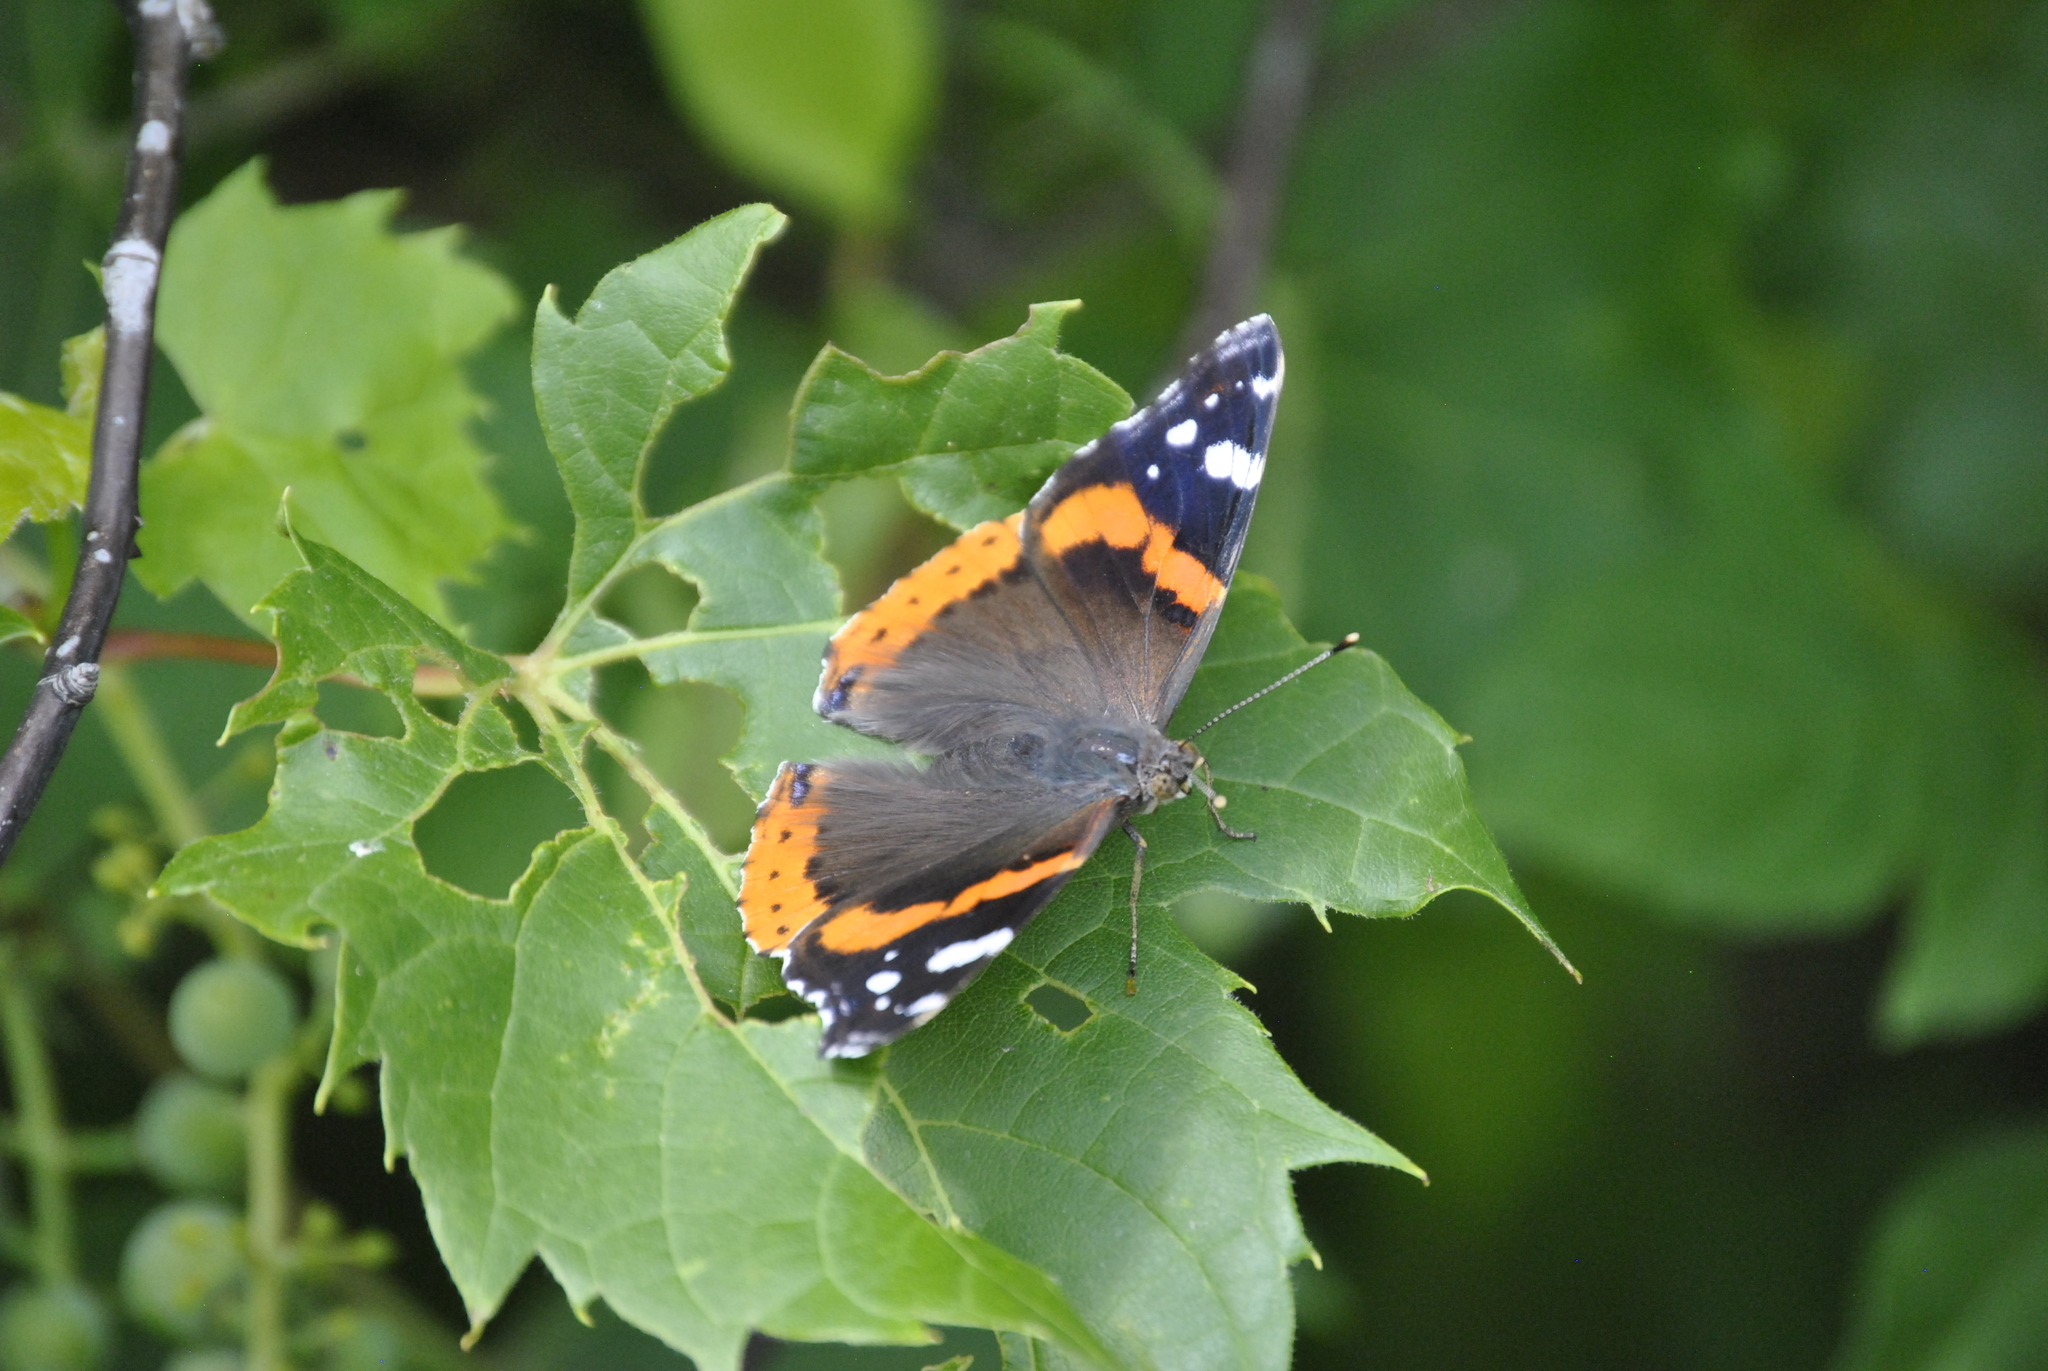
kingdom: Animalia
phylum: Arthropoda
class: Insecta
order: Lepidoptera
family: Nymphalidae
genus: Vanessa
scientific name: Vanessa atalanta
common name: Red admiral
